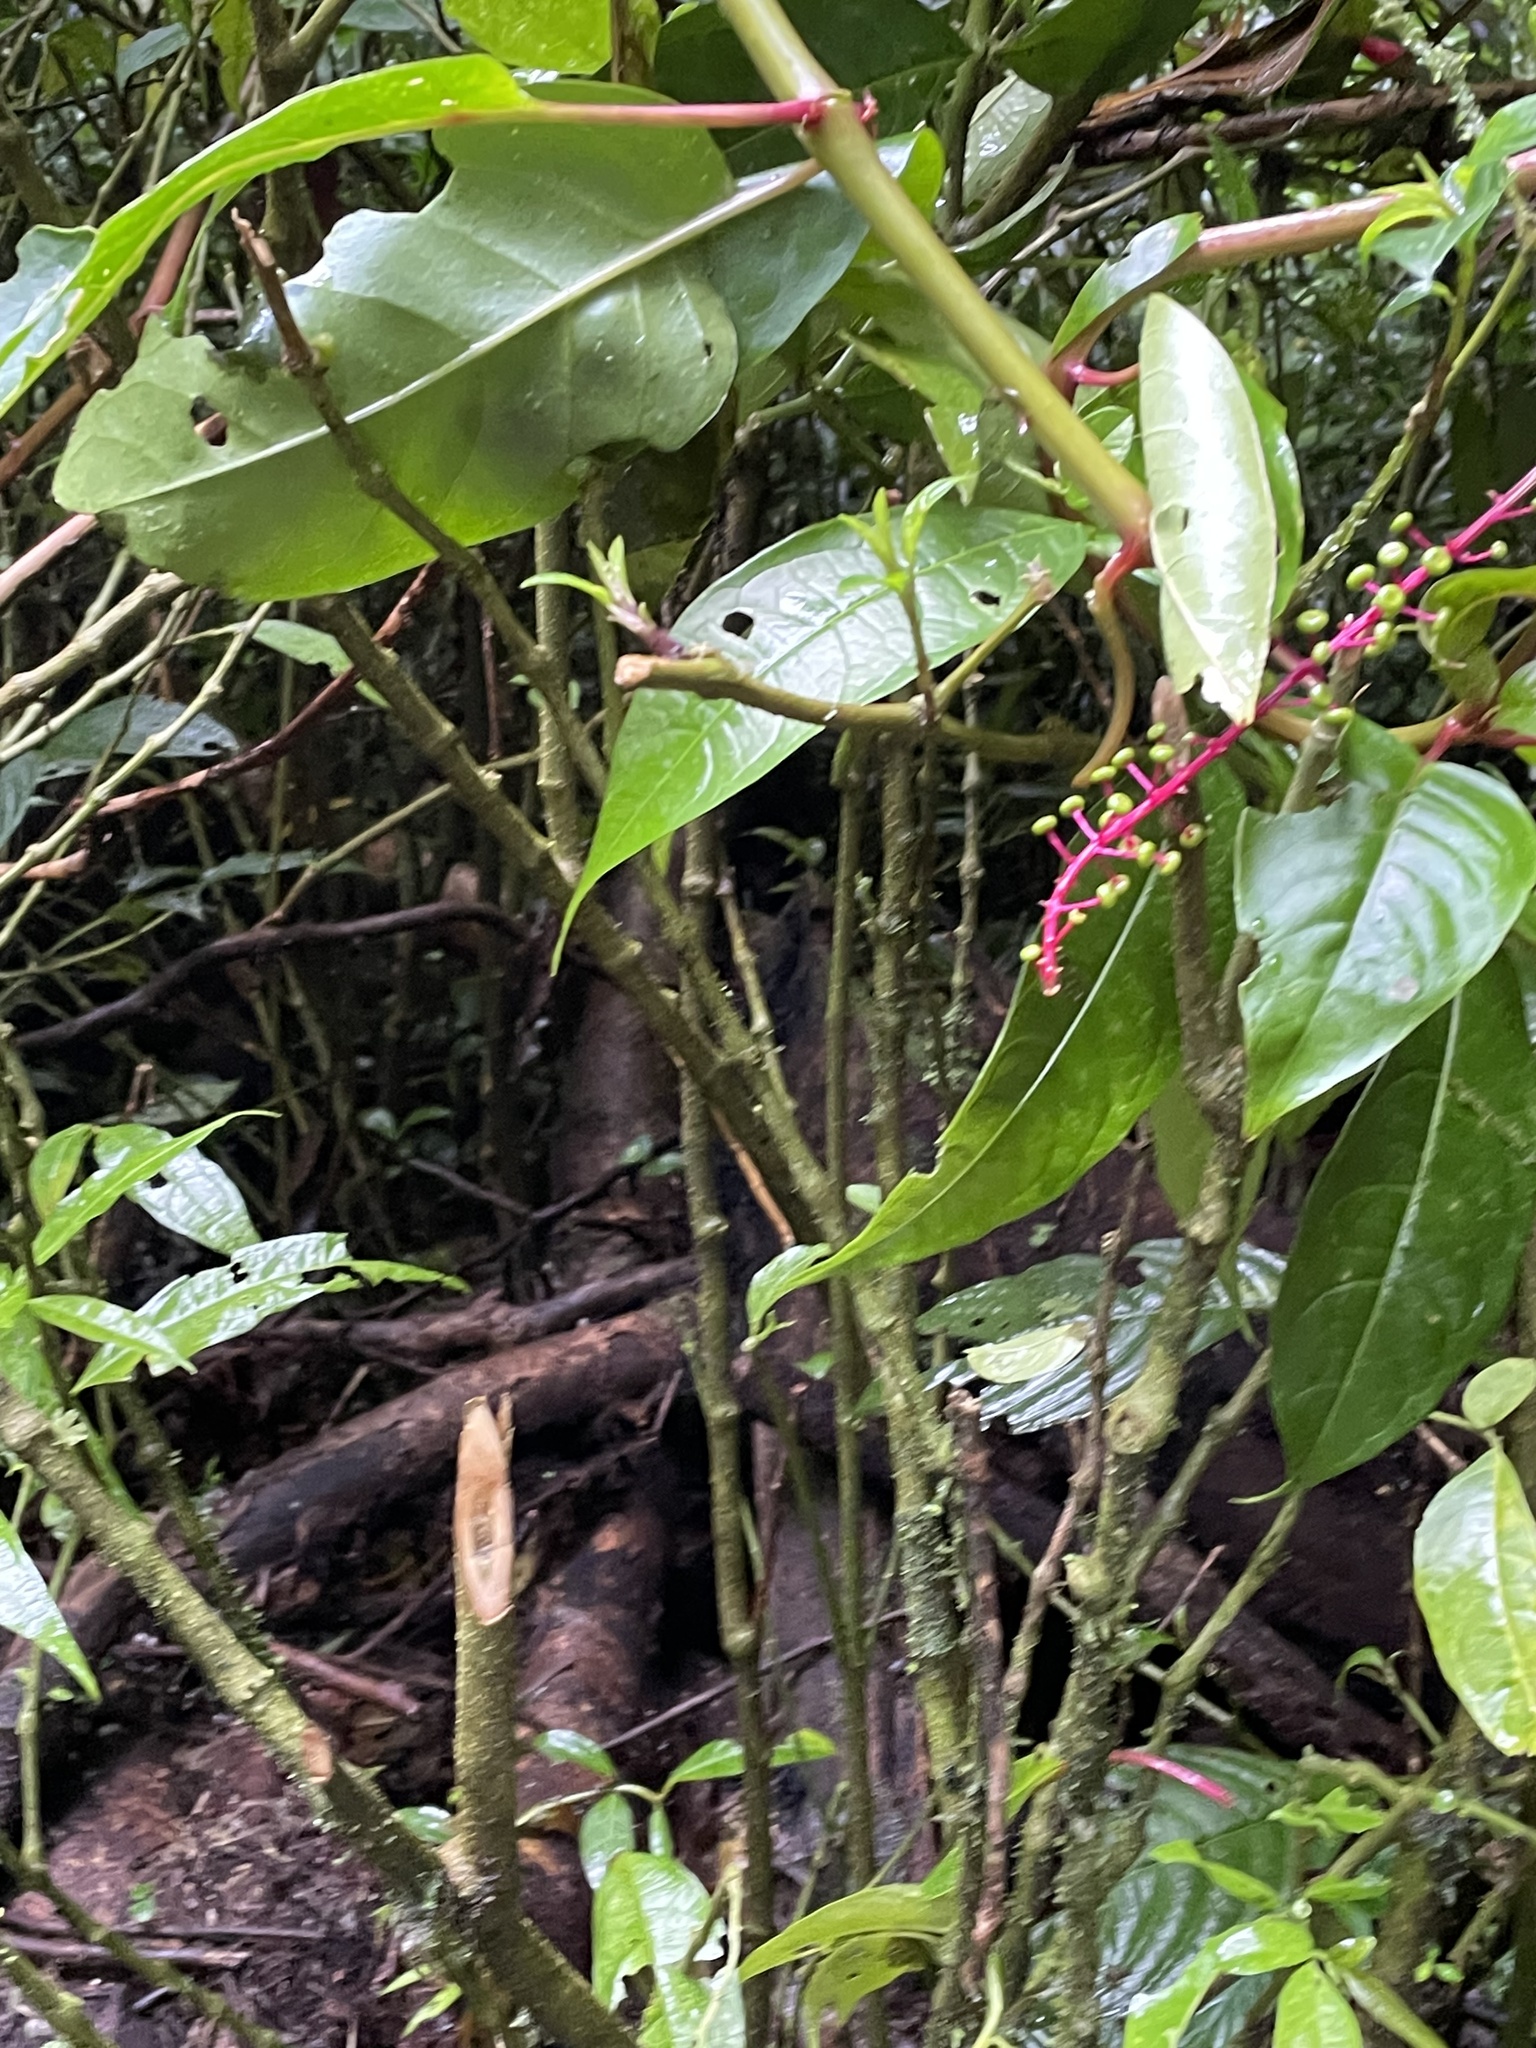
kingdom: Plantae
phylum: Tracheophyta
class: Magnoliopsida
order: Caryophyllales
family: Phytolaccaceae
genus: Phytolacca
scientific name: Phytolacca rivinoides
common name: Venezuelan pokeweed
